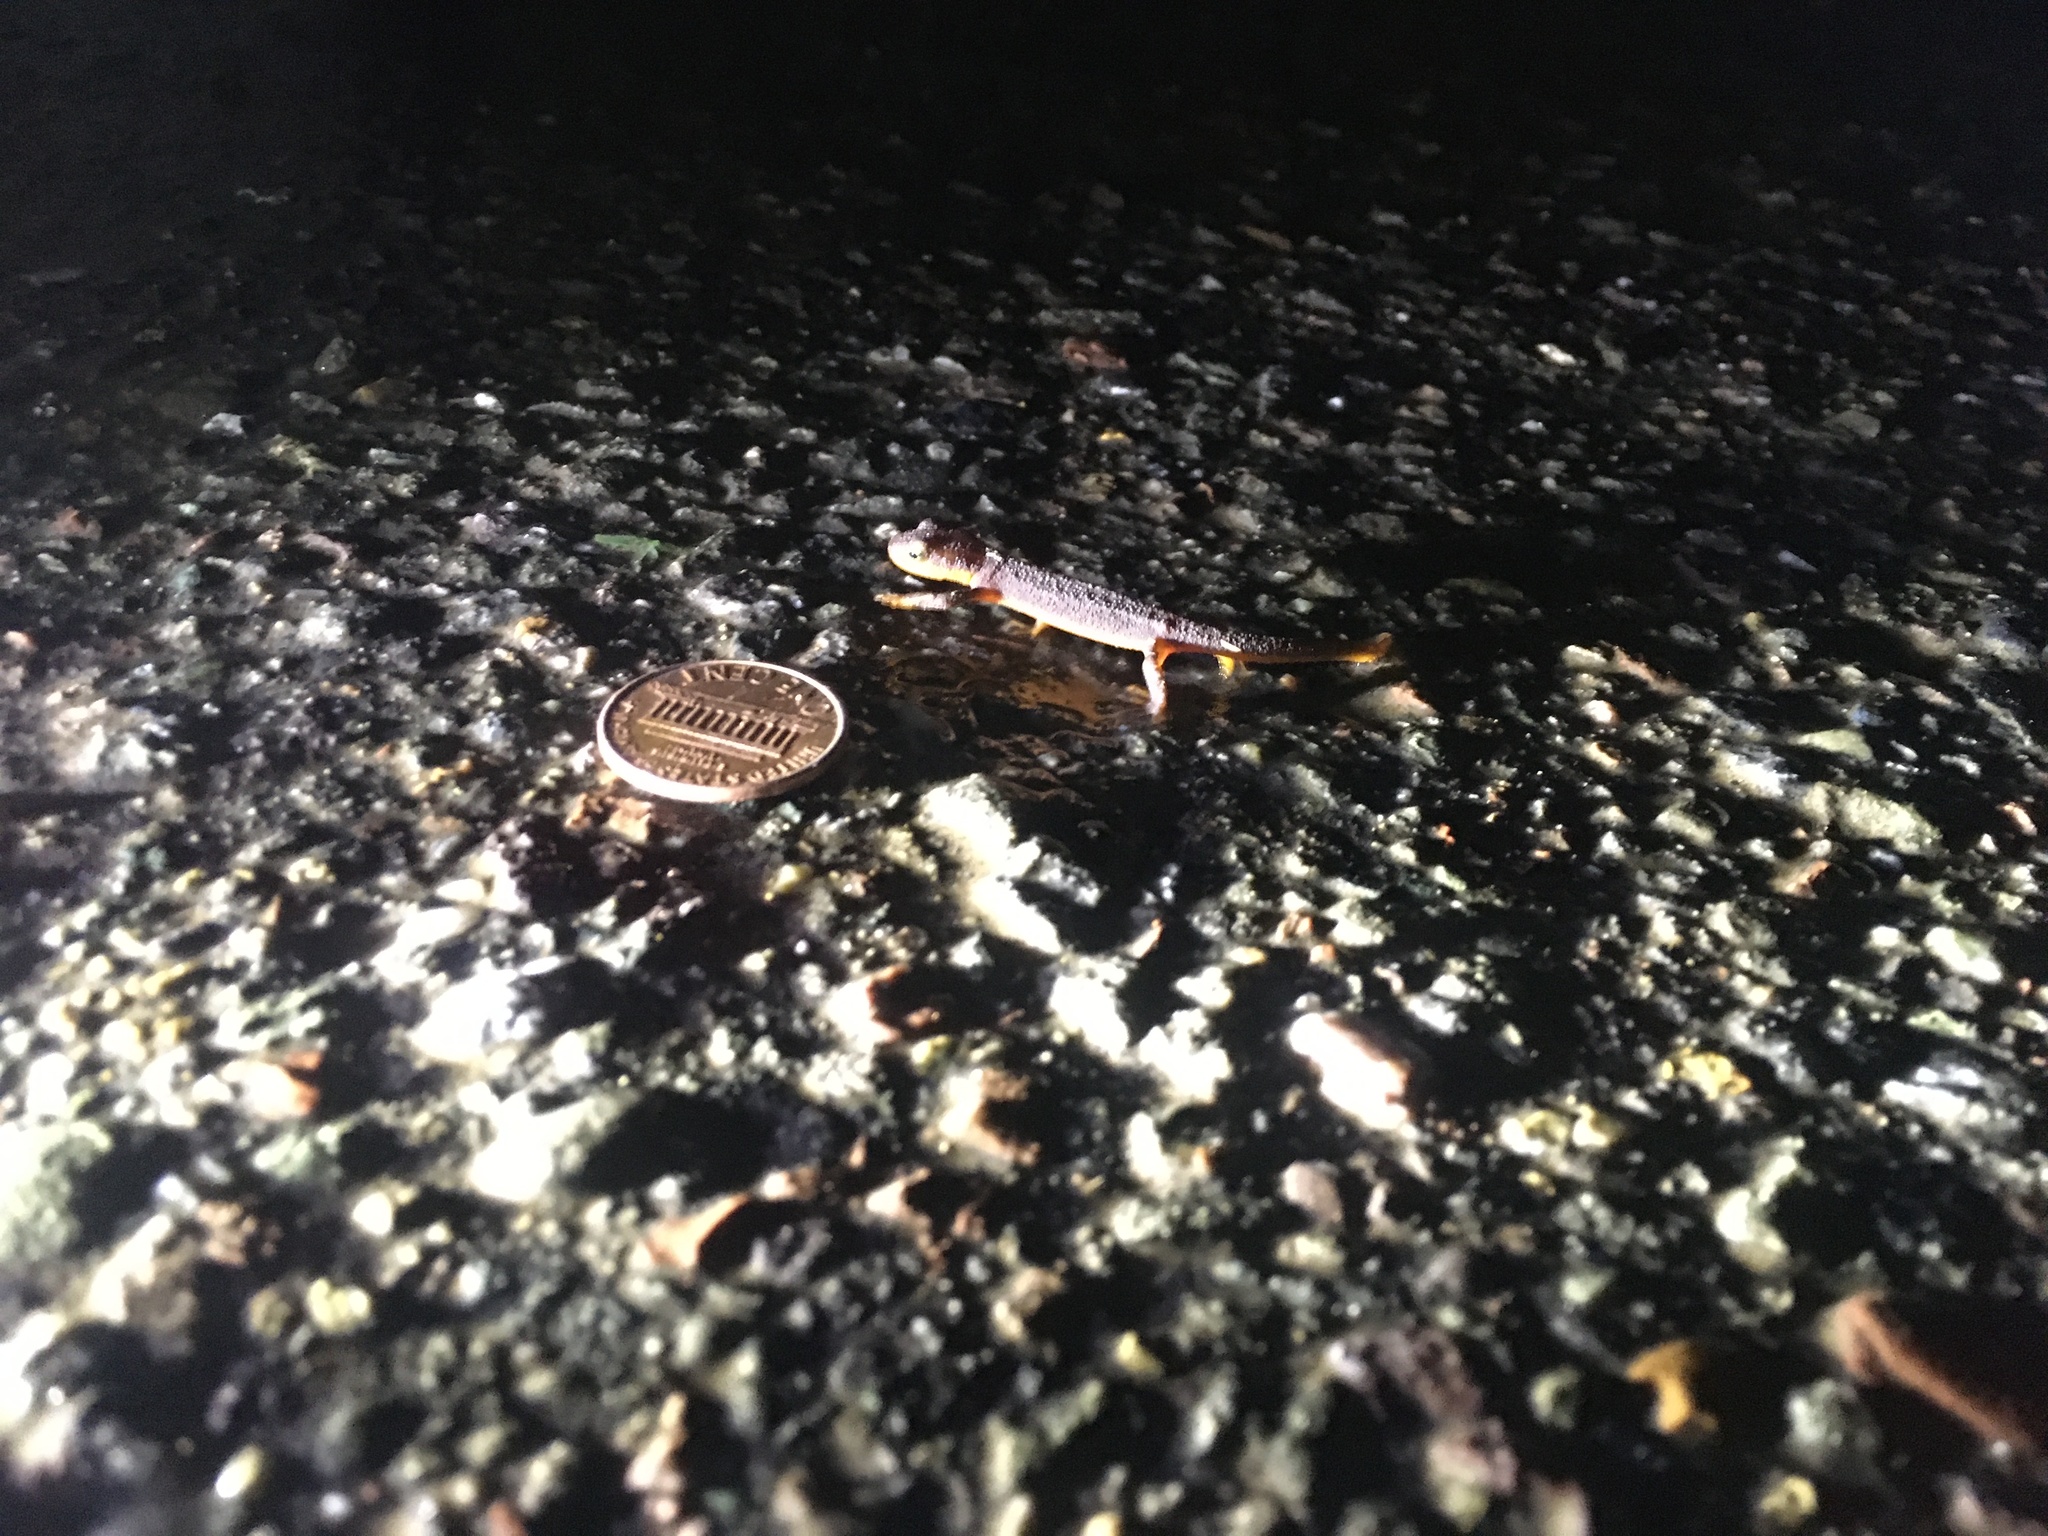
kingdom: Animalia
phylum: Chordata
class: Amphibia
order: Caudata
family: Salamandridae
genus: Taricha
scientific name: Taricha torosa
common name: California newt
